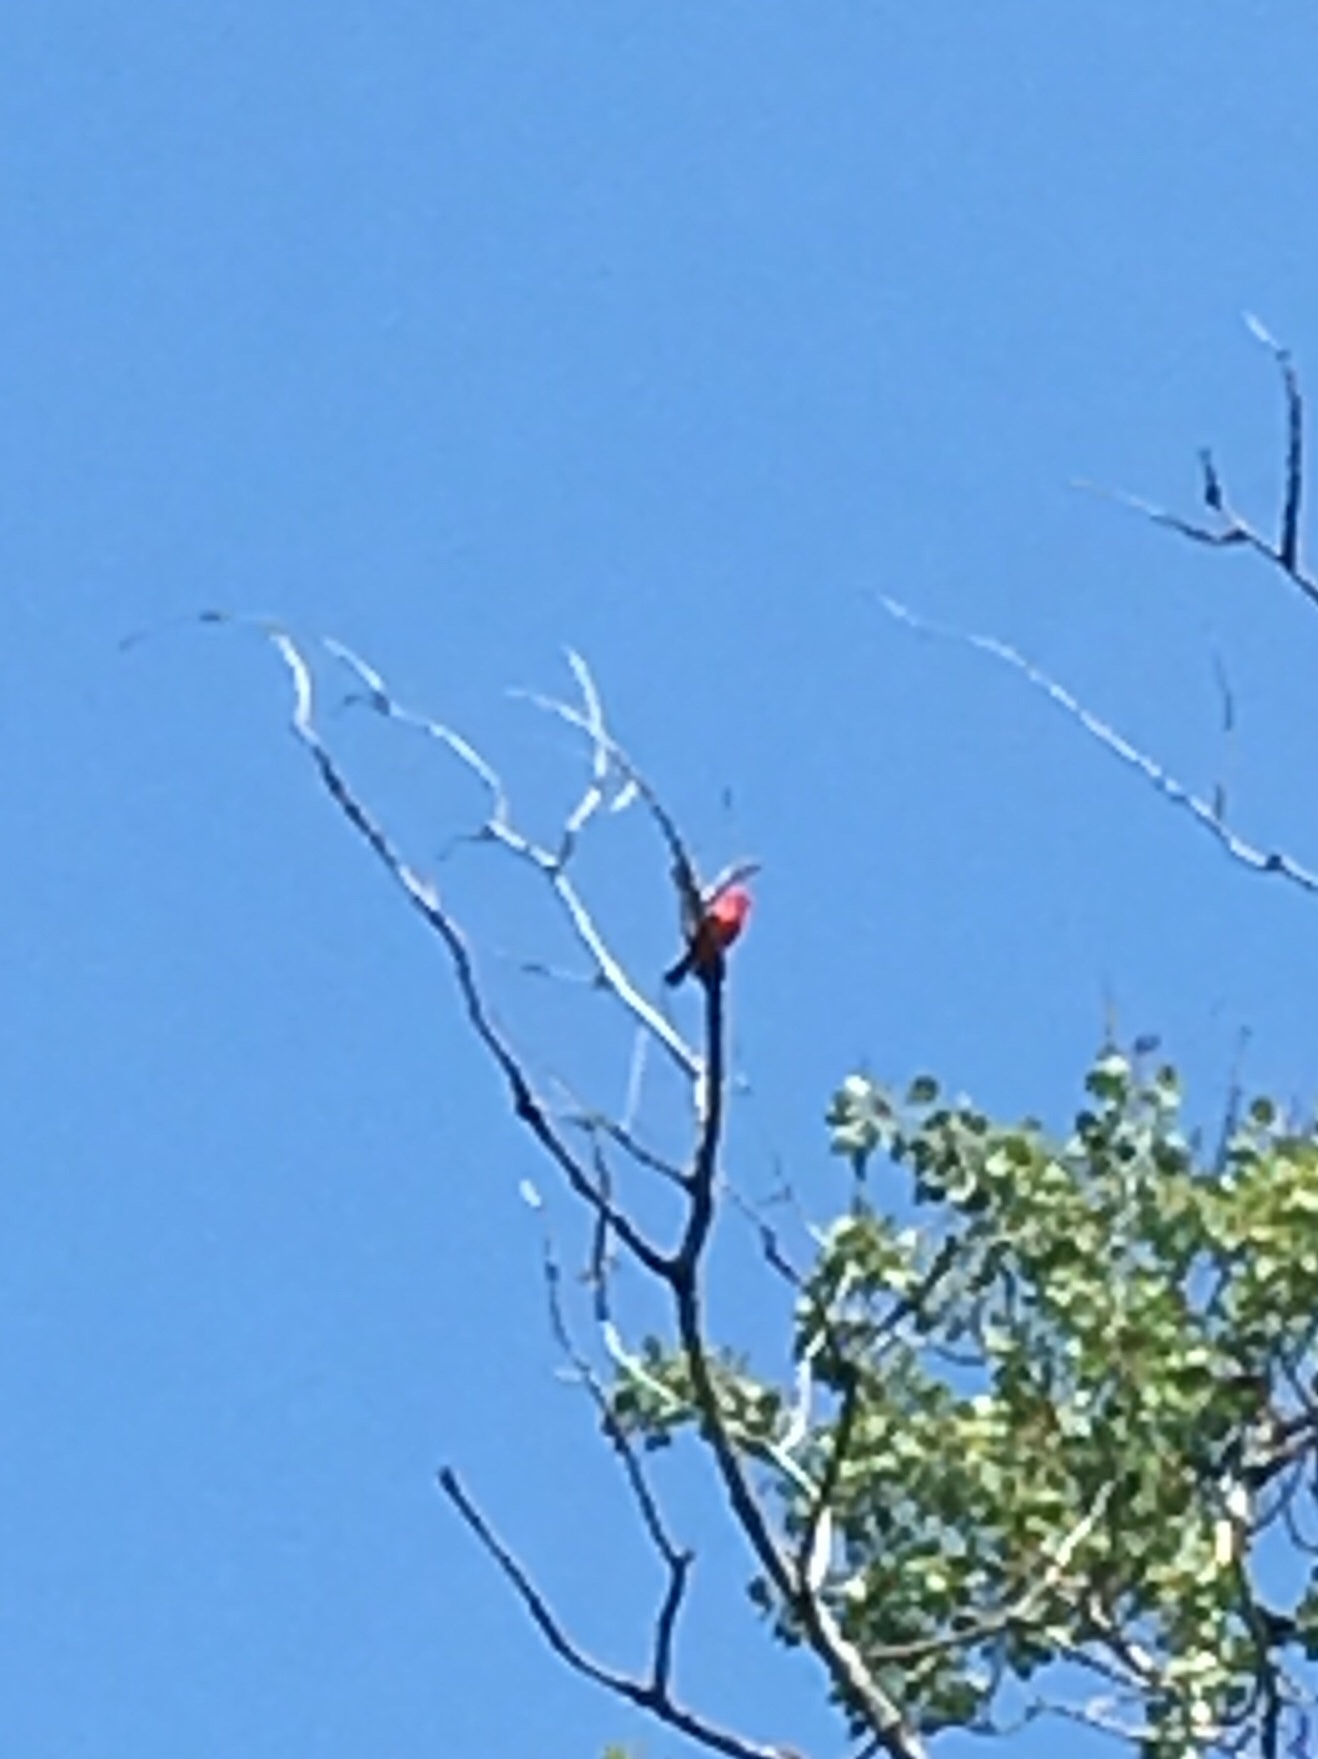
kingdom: Animalia
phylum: Chordata
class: Aves
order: Passeriformes
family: Cardinalidae
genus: Piranga
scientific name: Piranga olivacea
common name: Scarlet tanager
